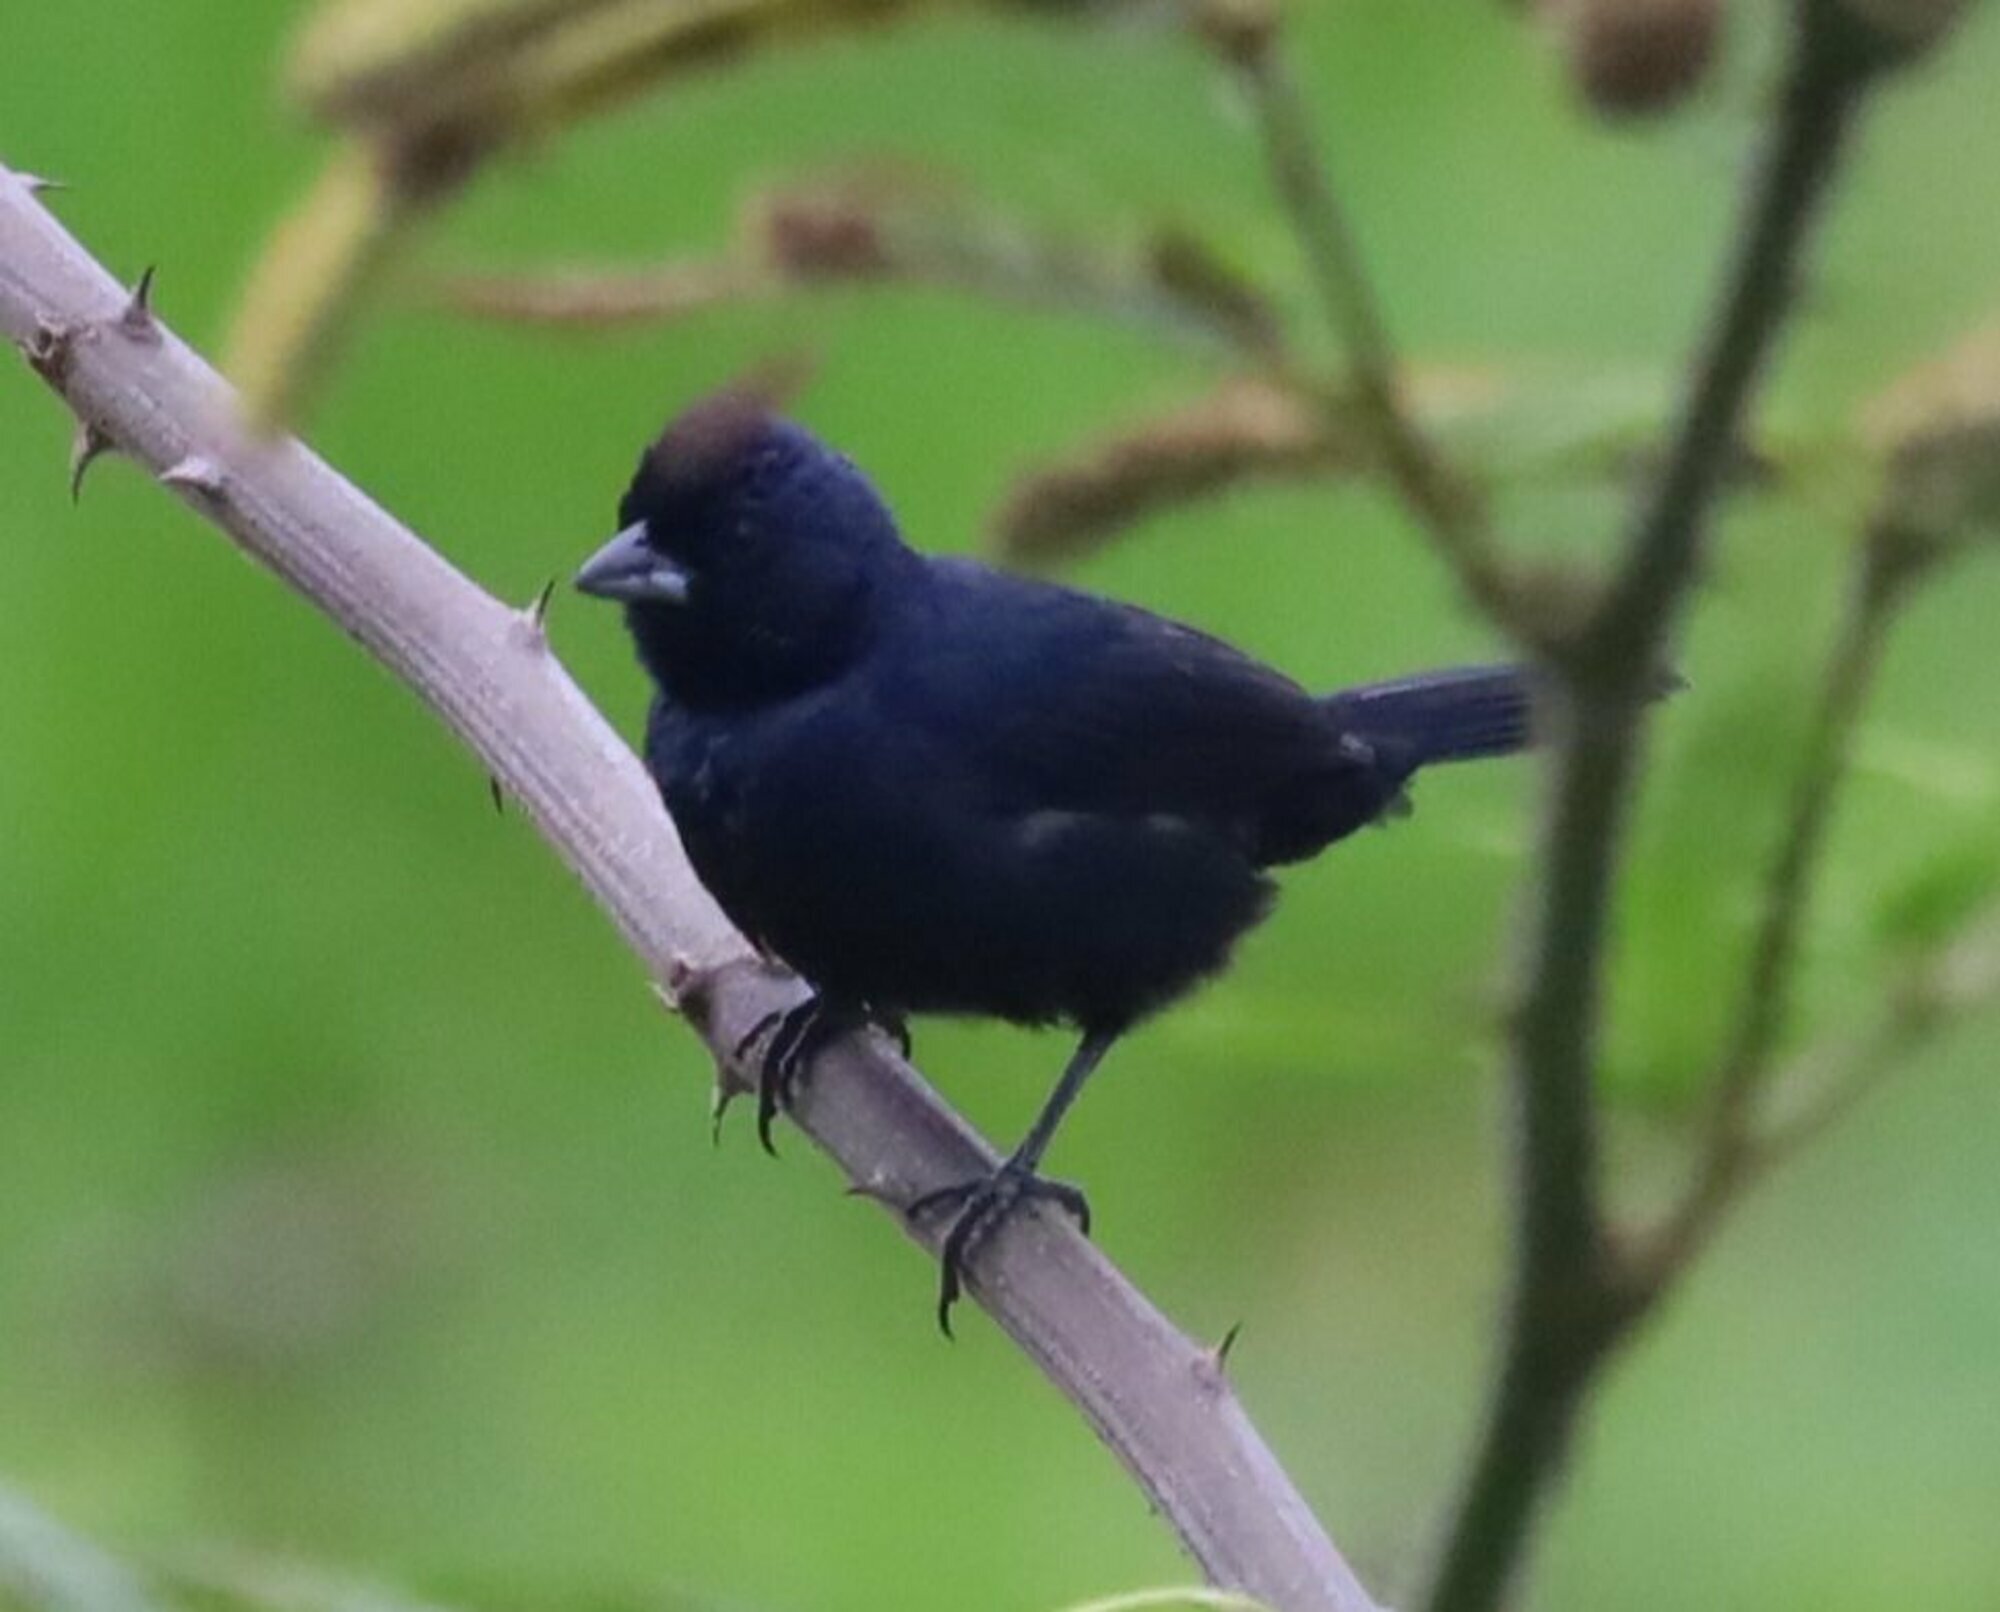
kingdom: Animalia
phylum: Chordata
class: Aves
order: Passeriformes
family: Thraupidae
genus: Volatinia
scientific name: Volatinia jacarina
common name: Blue-black grassquit
